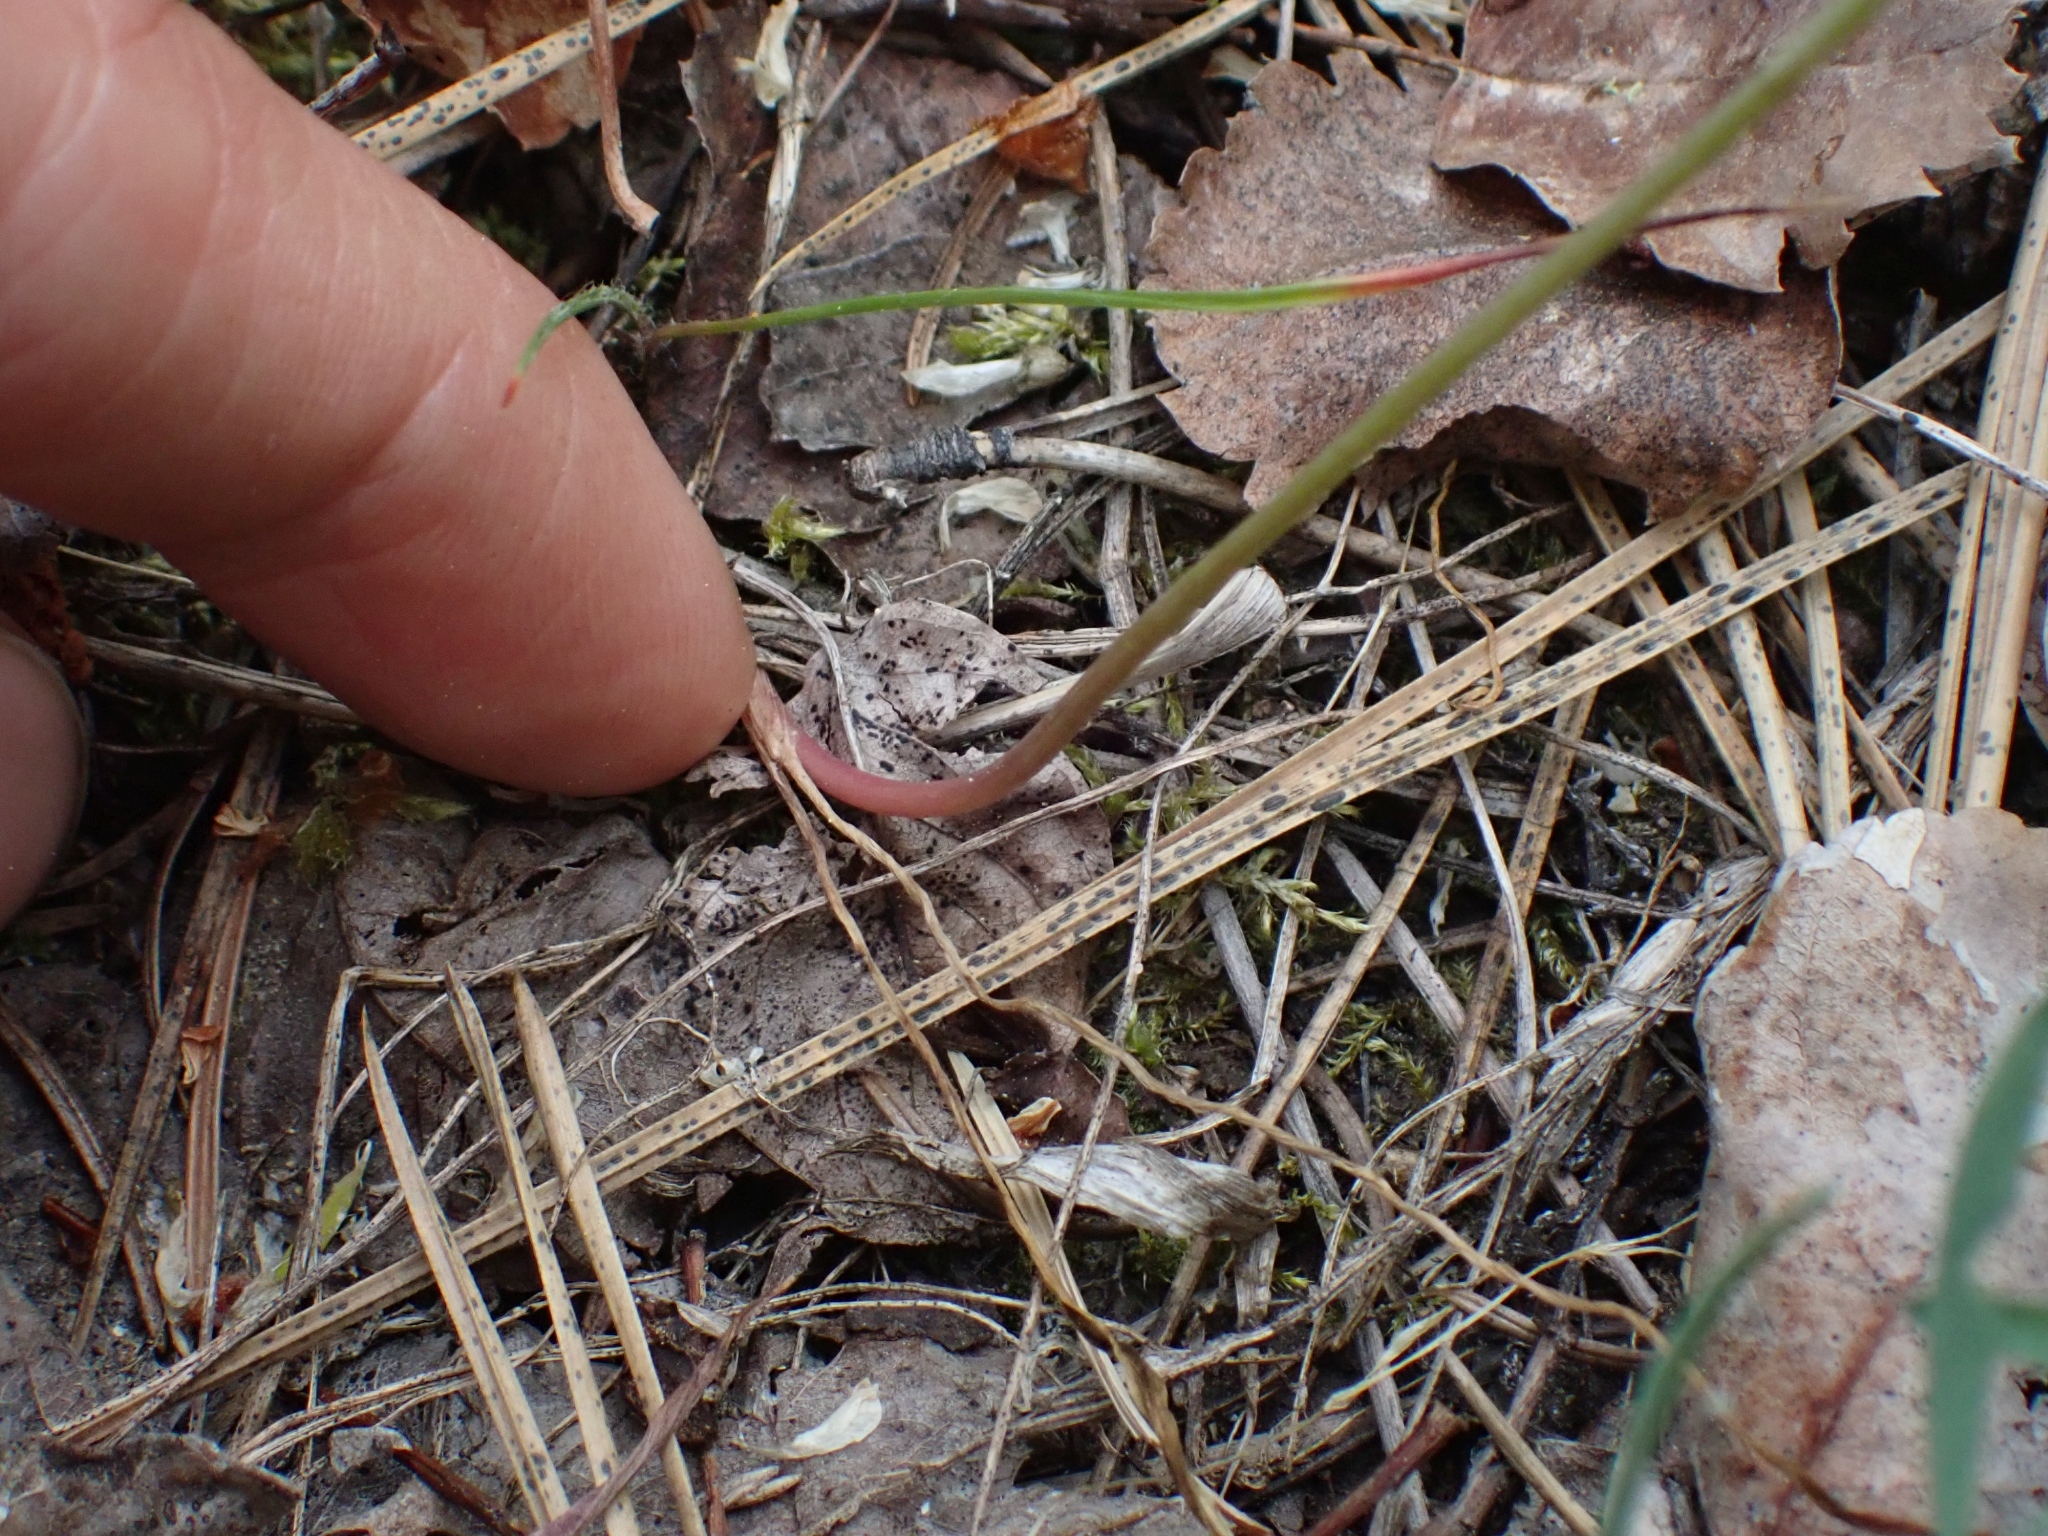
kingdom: Plantae
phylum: Tracheophyta
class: Liliopsida
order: Asparagales
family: Amaryllidaceae
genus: Allium
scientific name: Allium acuminatum
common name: Hooker's onion
